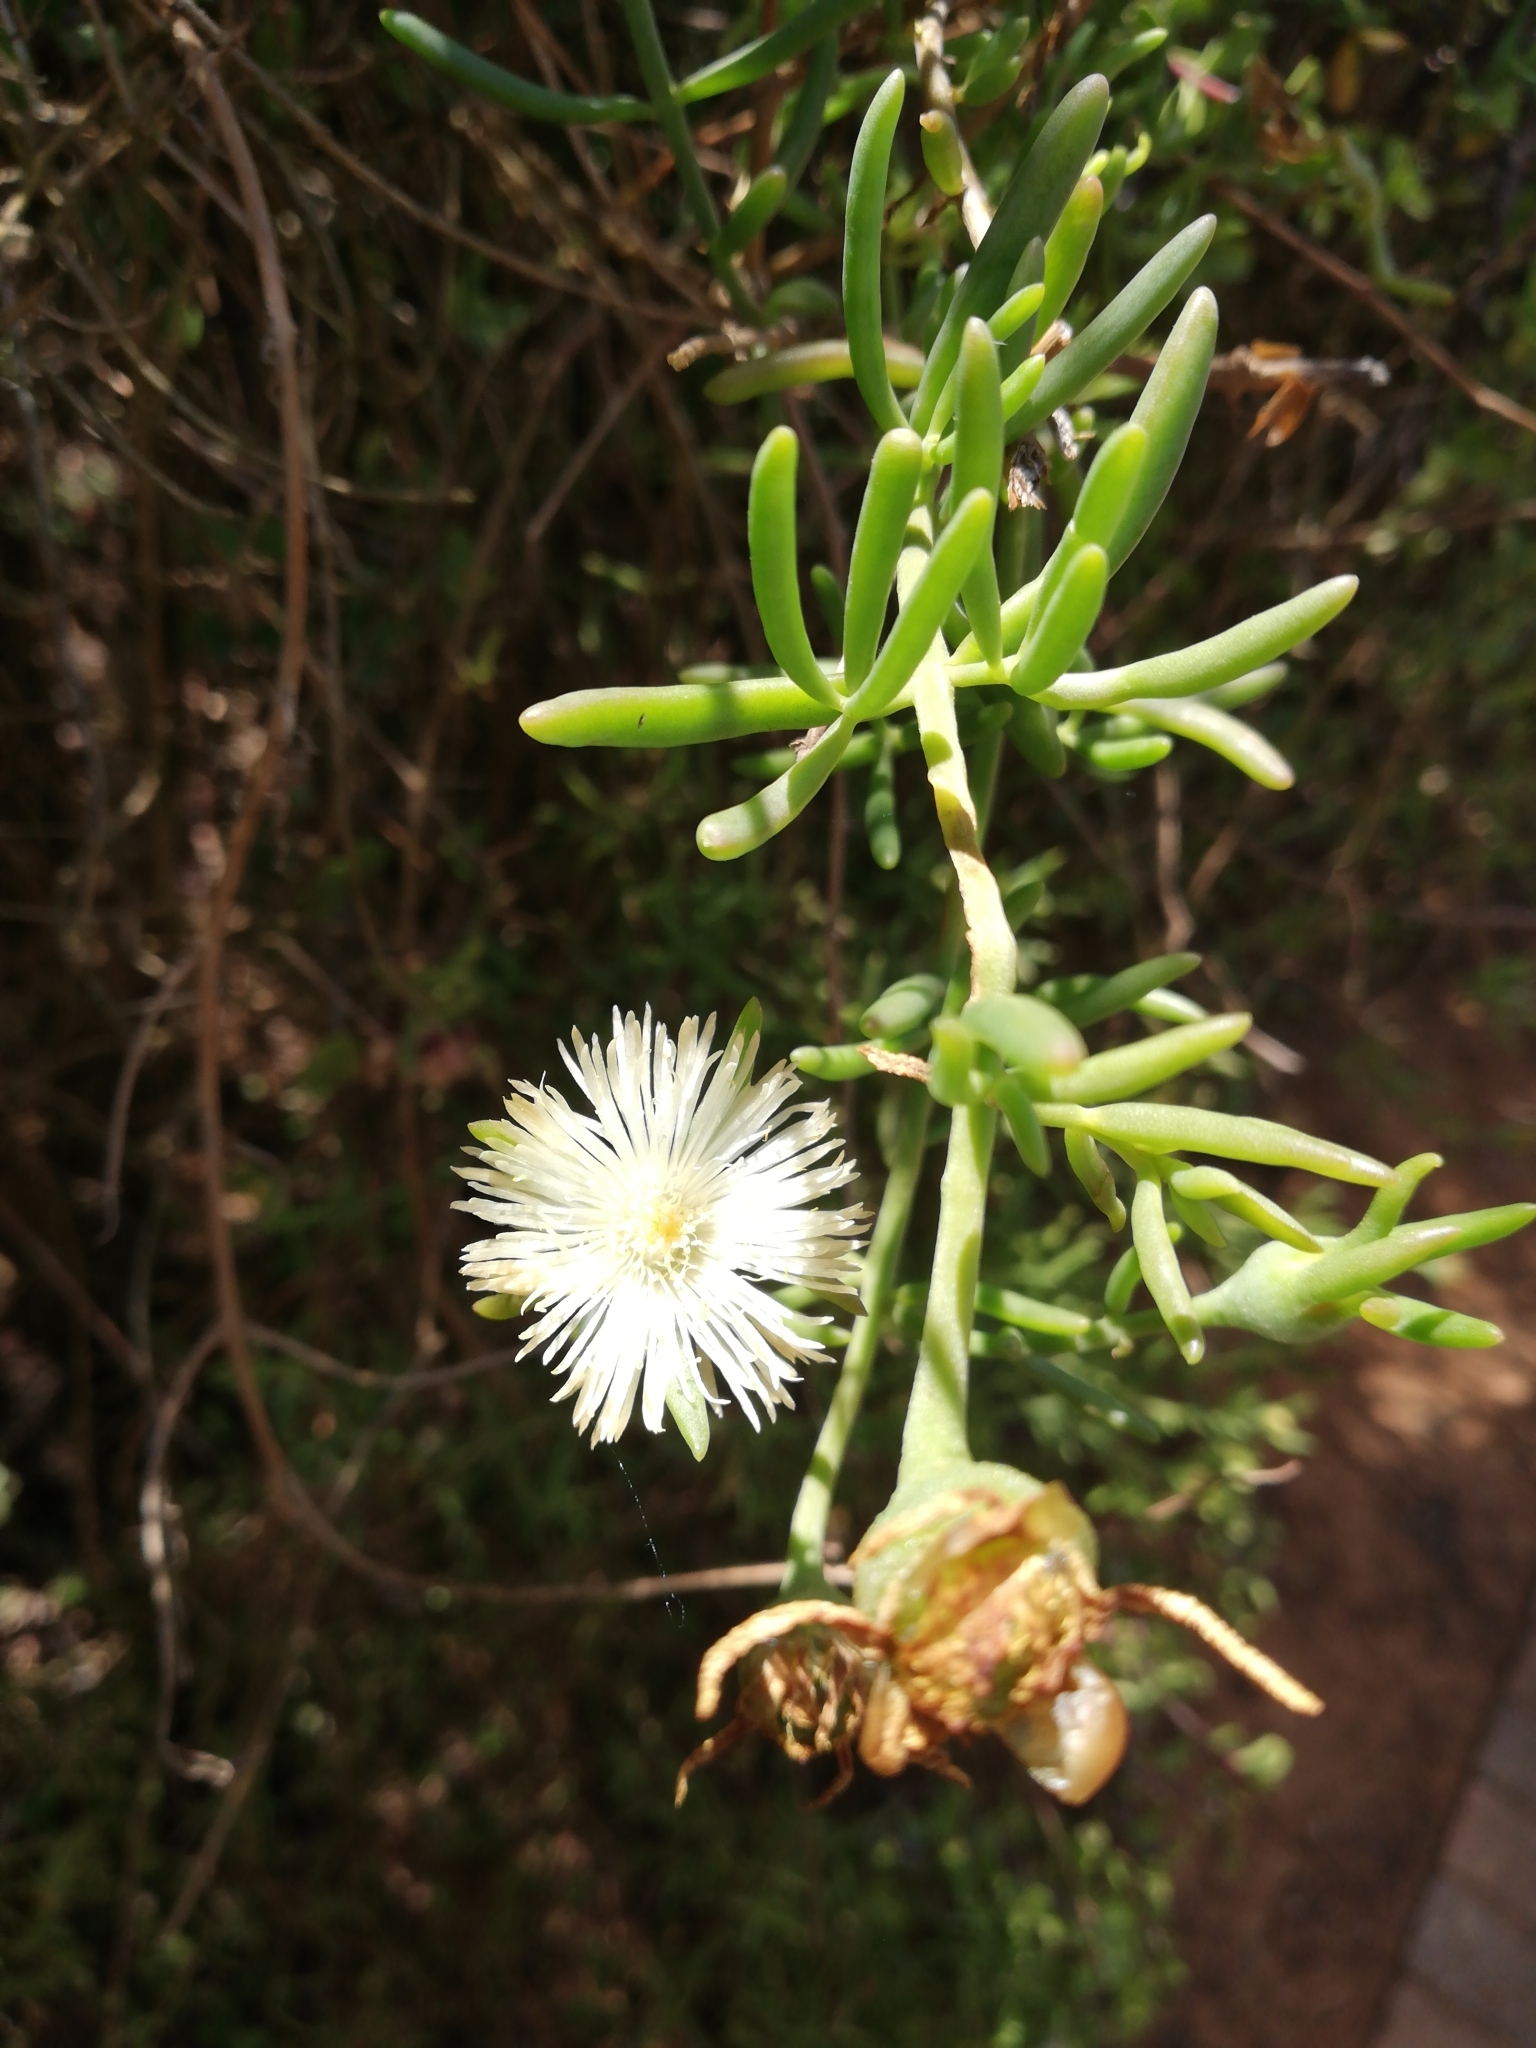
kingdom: Plantae
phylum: Tracheophyta
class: Magnoliopsida
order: Caryophyllales
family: Aizoaceae
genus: Mesembryanthemum
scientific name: Mesembryanthemum splendens
